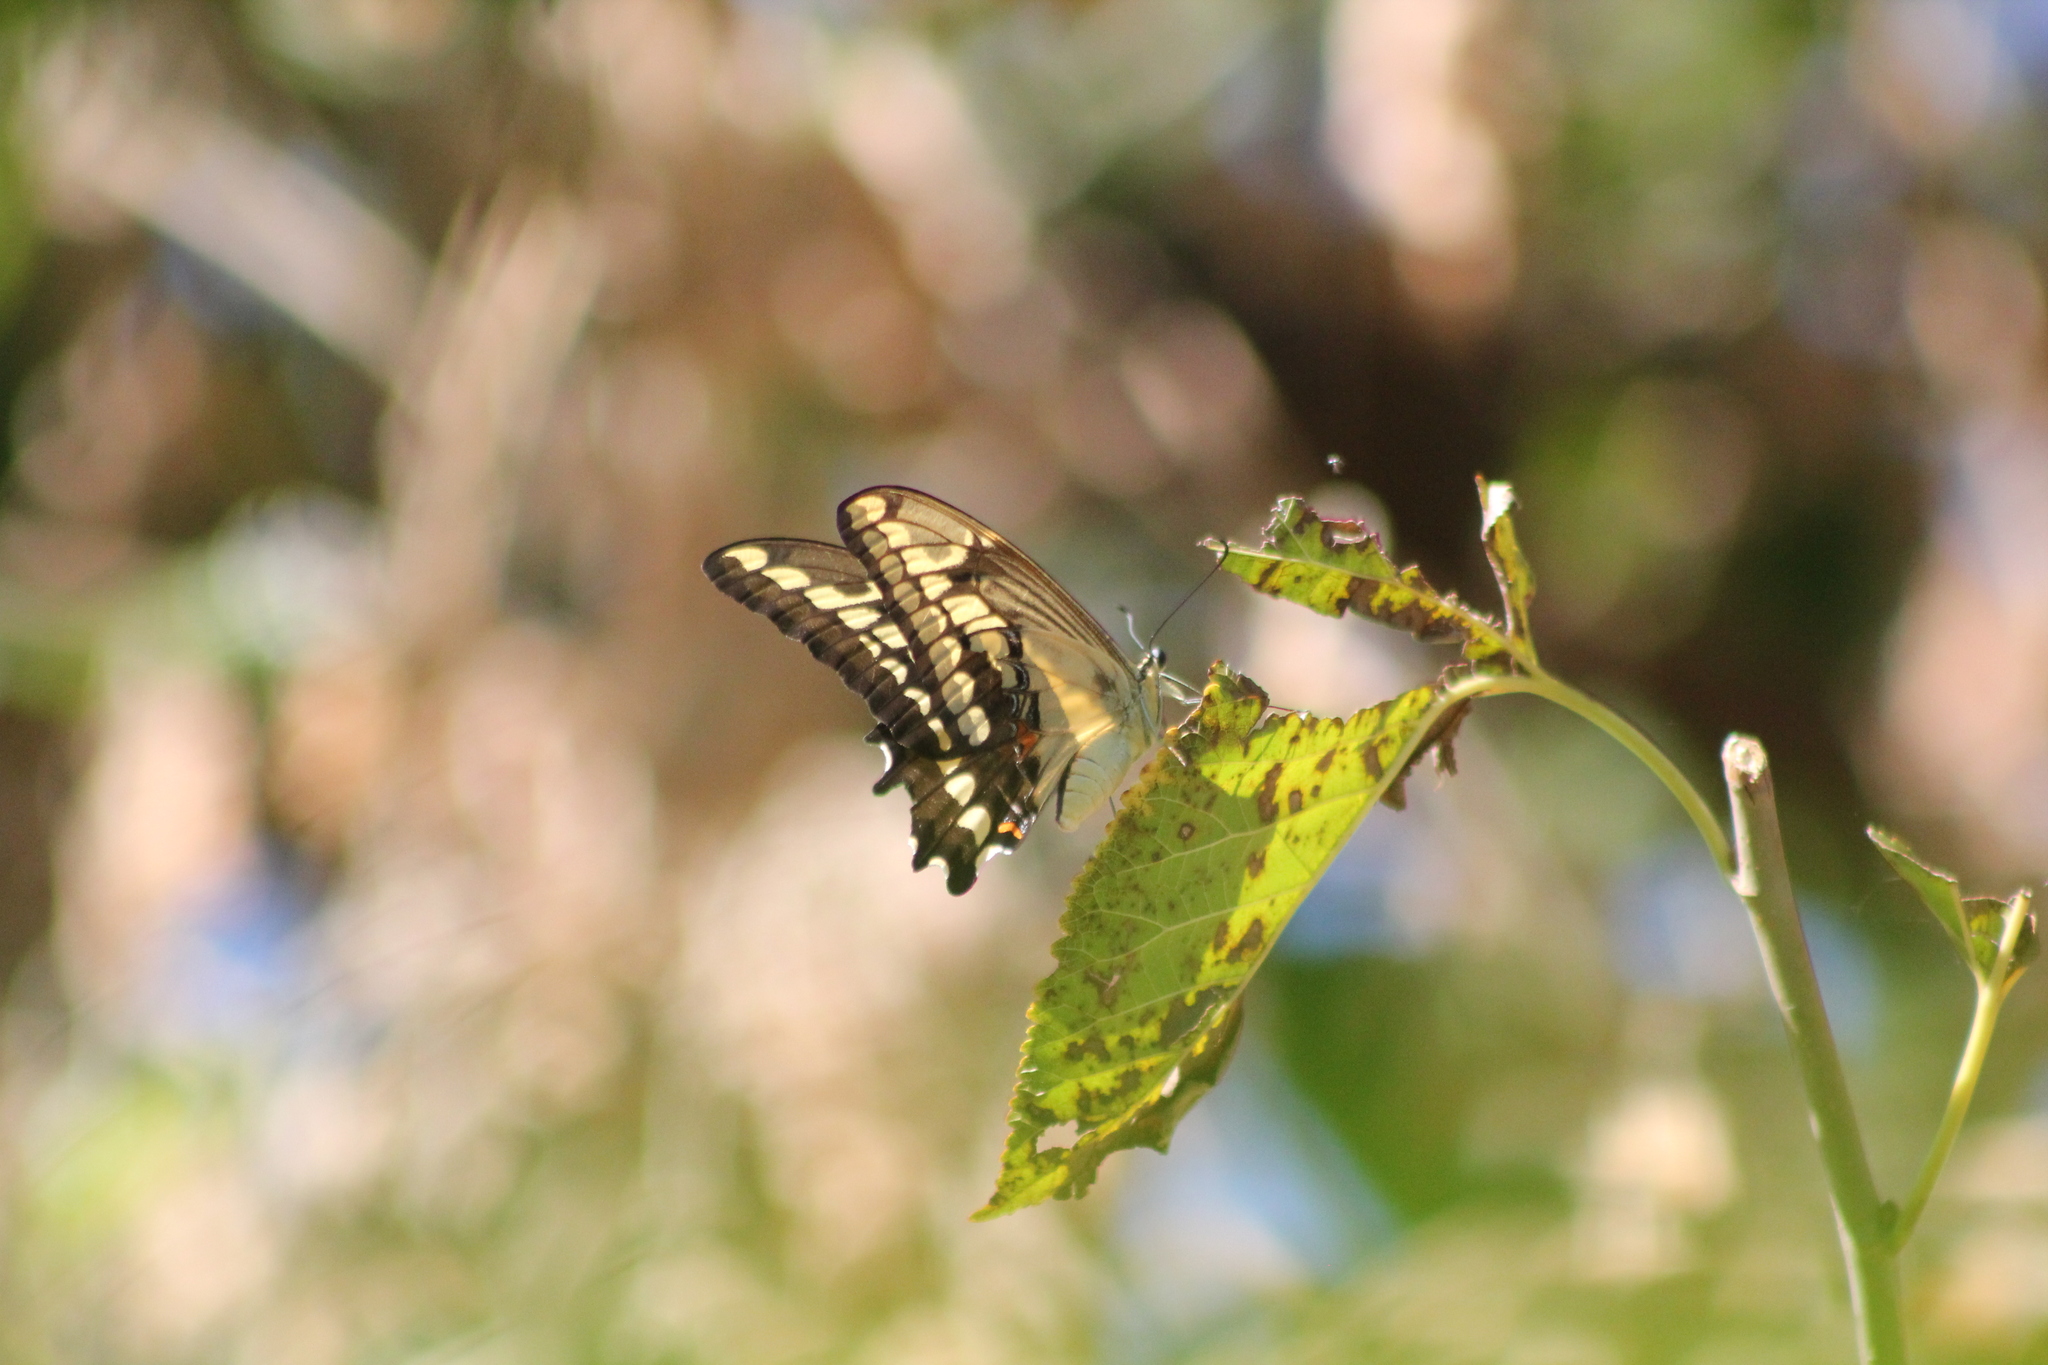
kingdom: Animalia
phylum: Arthropoda
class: Insecta
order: Lepidoptera
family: Papilionidae
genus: Papilio
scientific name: Papilio thoas
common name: King swallowtail
